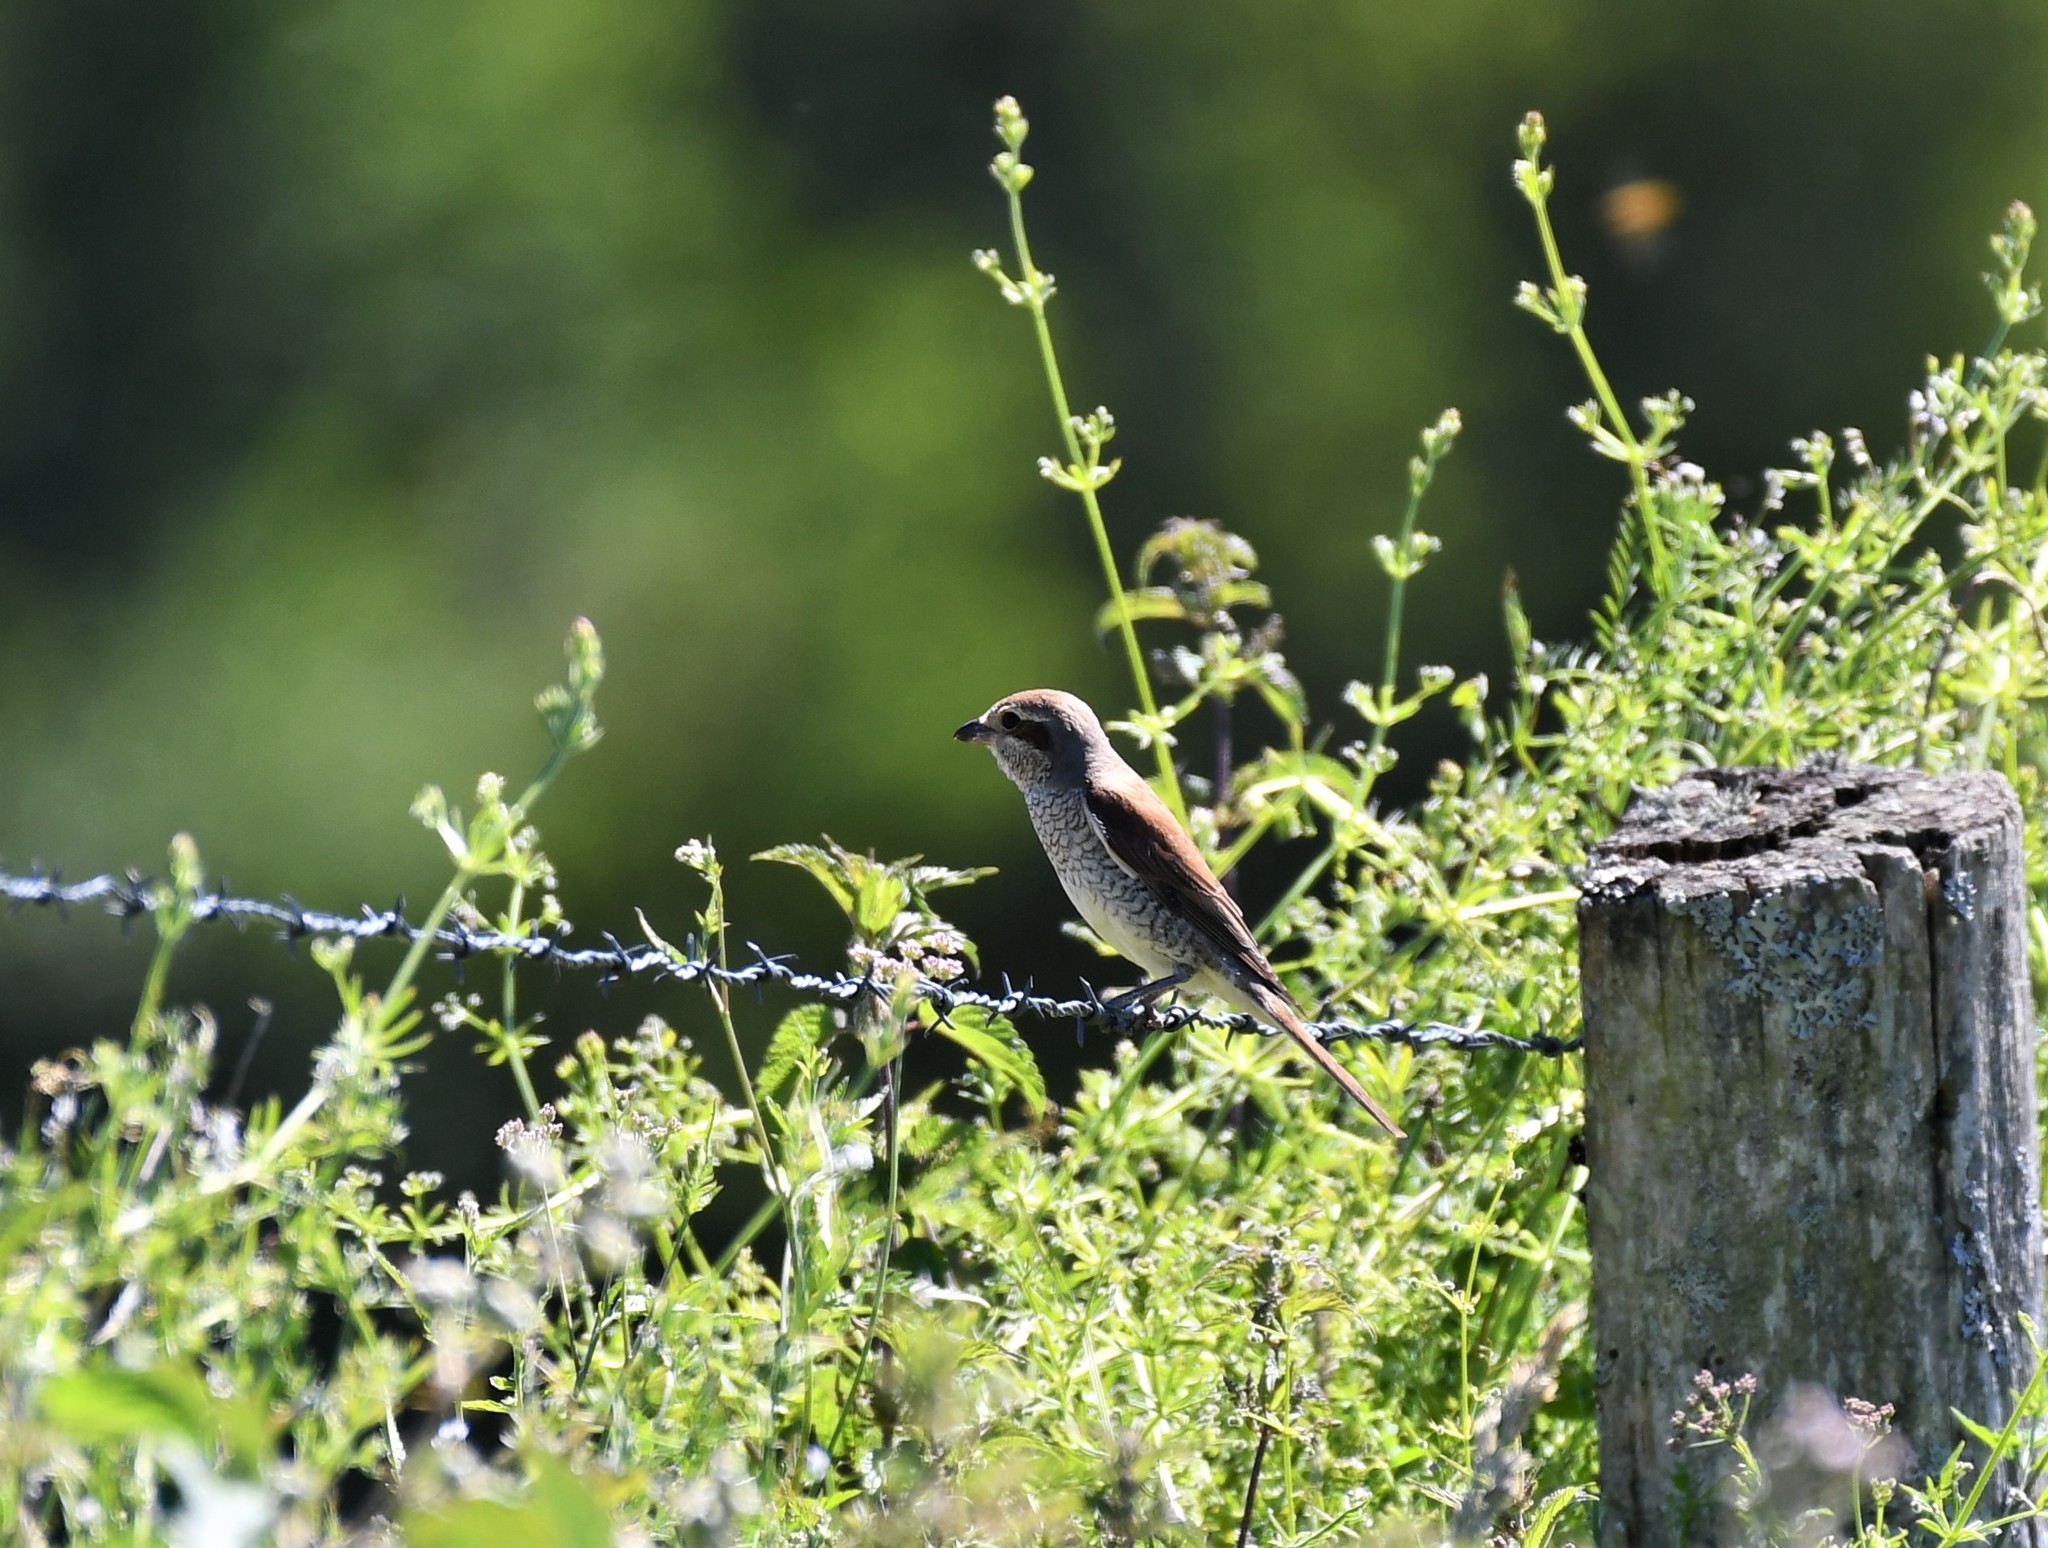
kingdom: Animalia
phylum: Chordata
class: Aves
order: Passeriformes
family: Laniidae
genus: Lanius
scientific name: Lanius collurio
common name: Red-backed shrike
